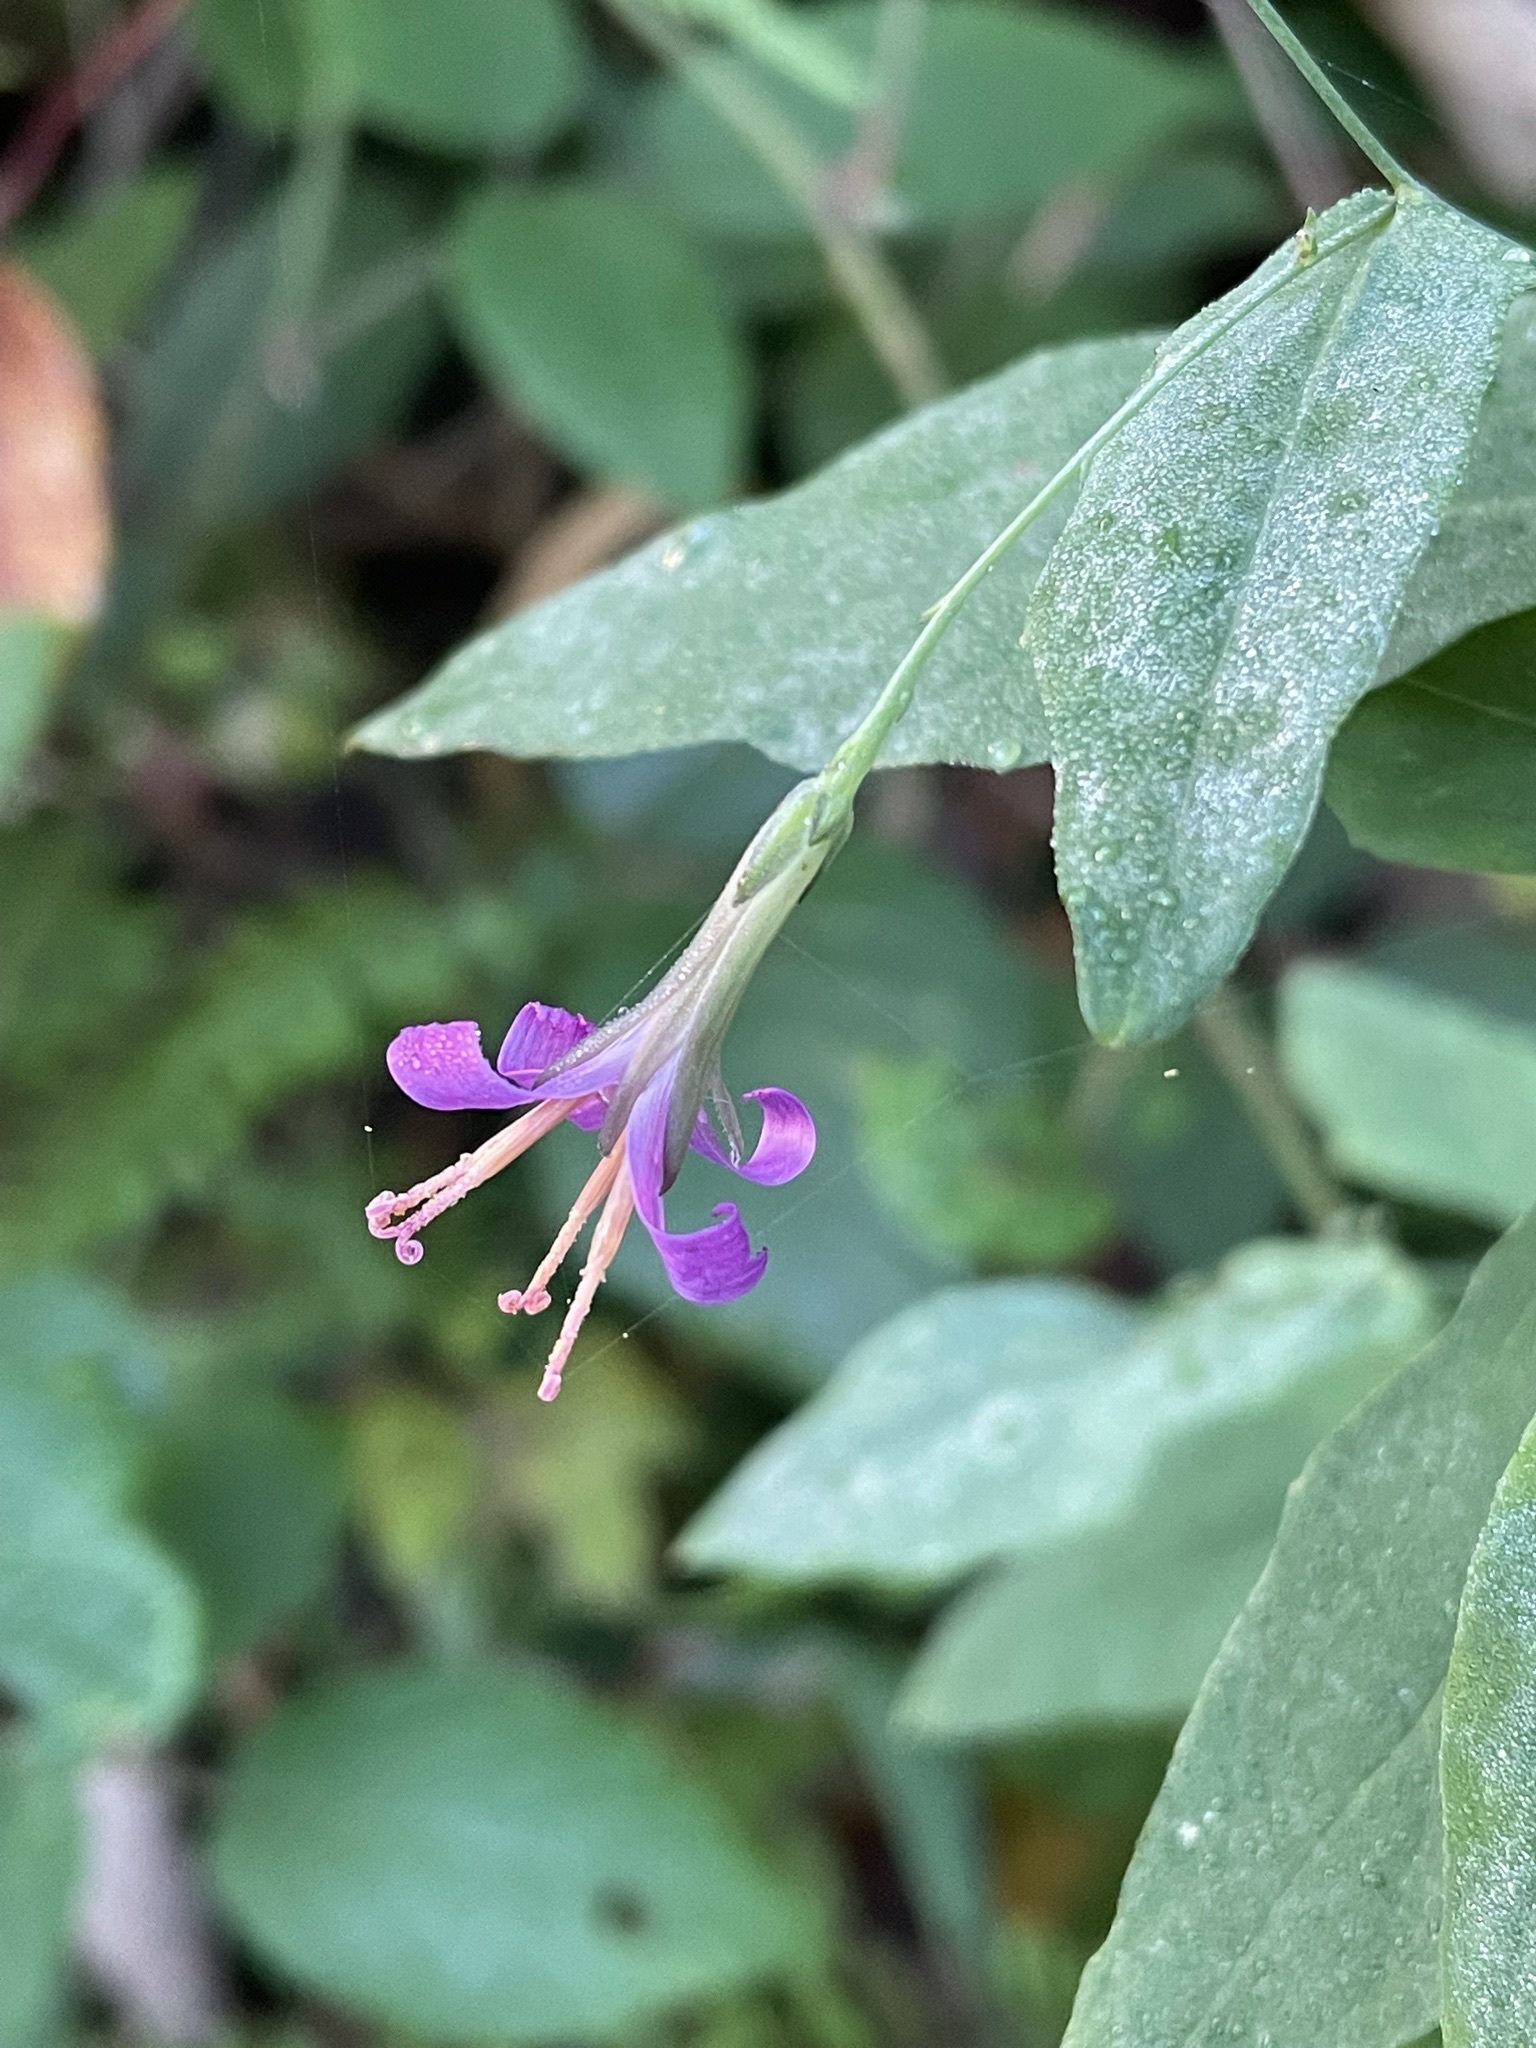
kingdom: Plantae
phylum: Tracheophyta
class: Magnoliopsida
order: Asterales
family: Asteraceae
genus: Prenanthes
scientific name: Prenanthes purpurea
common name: Purple lettuce
